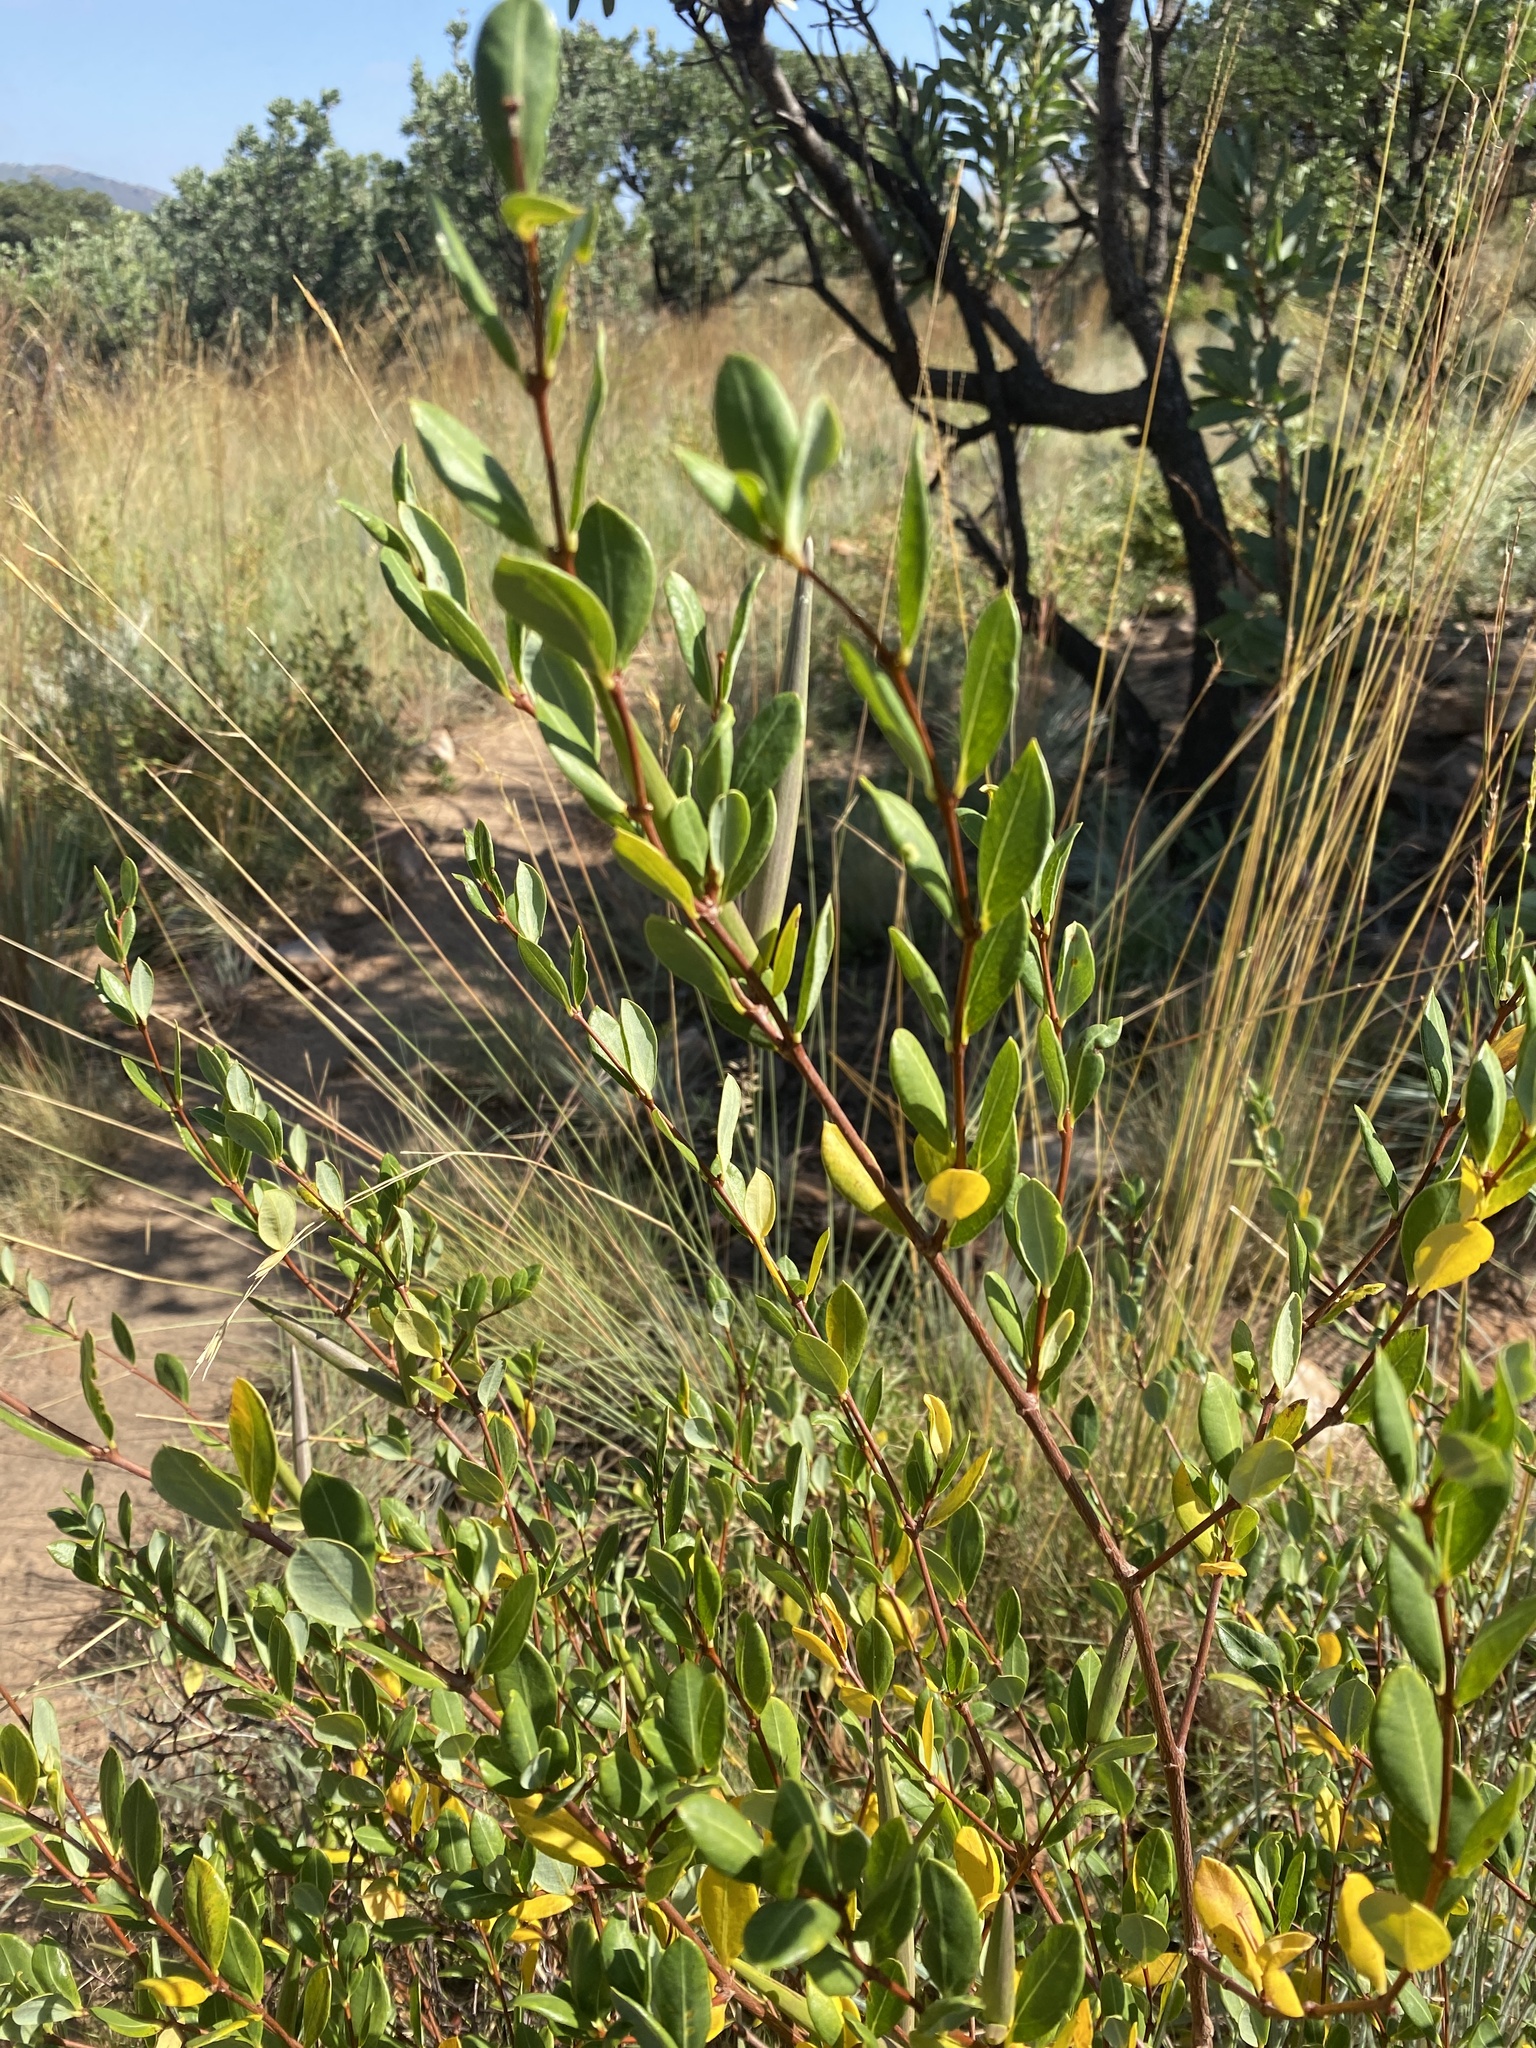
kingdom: Plantae
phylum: Tracheophyta
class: Magnoliopsida
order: Gentianales
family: Apocynaceae
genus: Cryptolepis
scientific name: Cryptolepis oblongifolia
